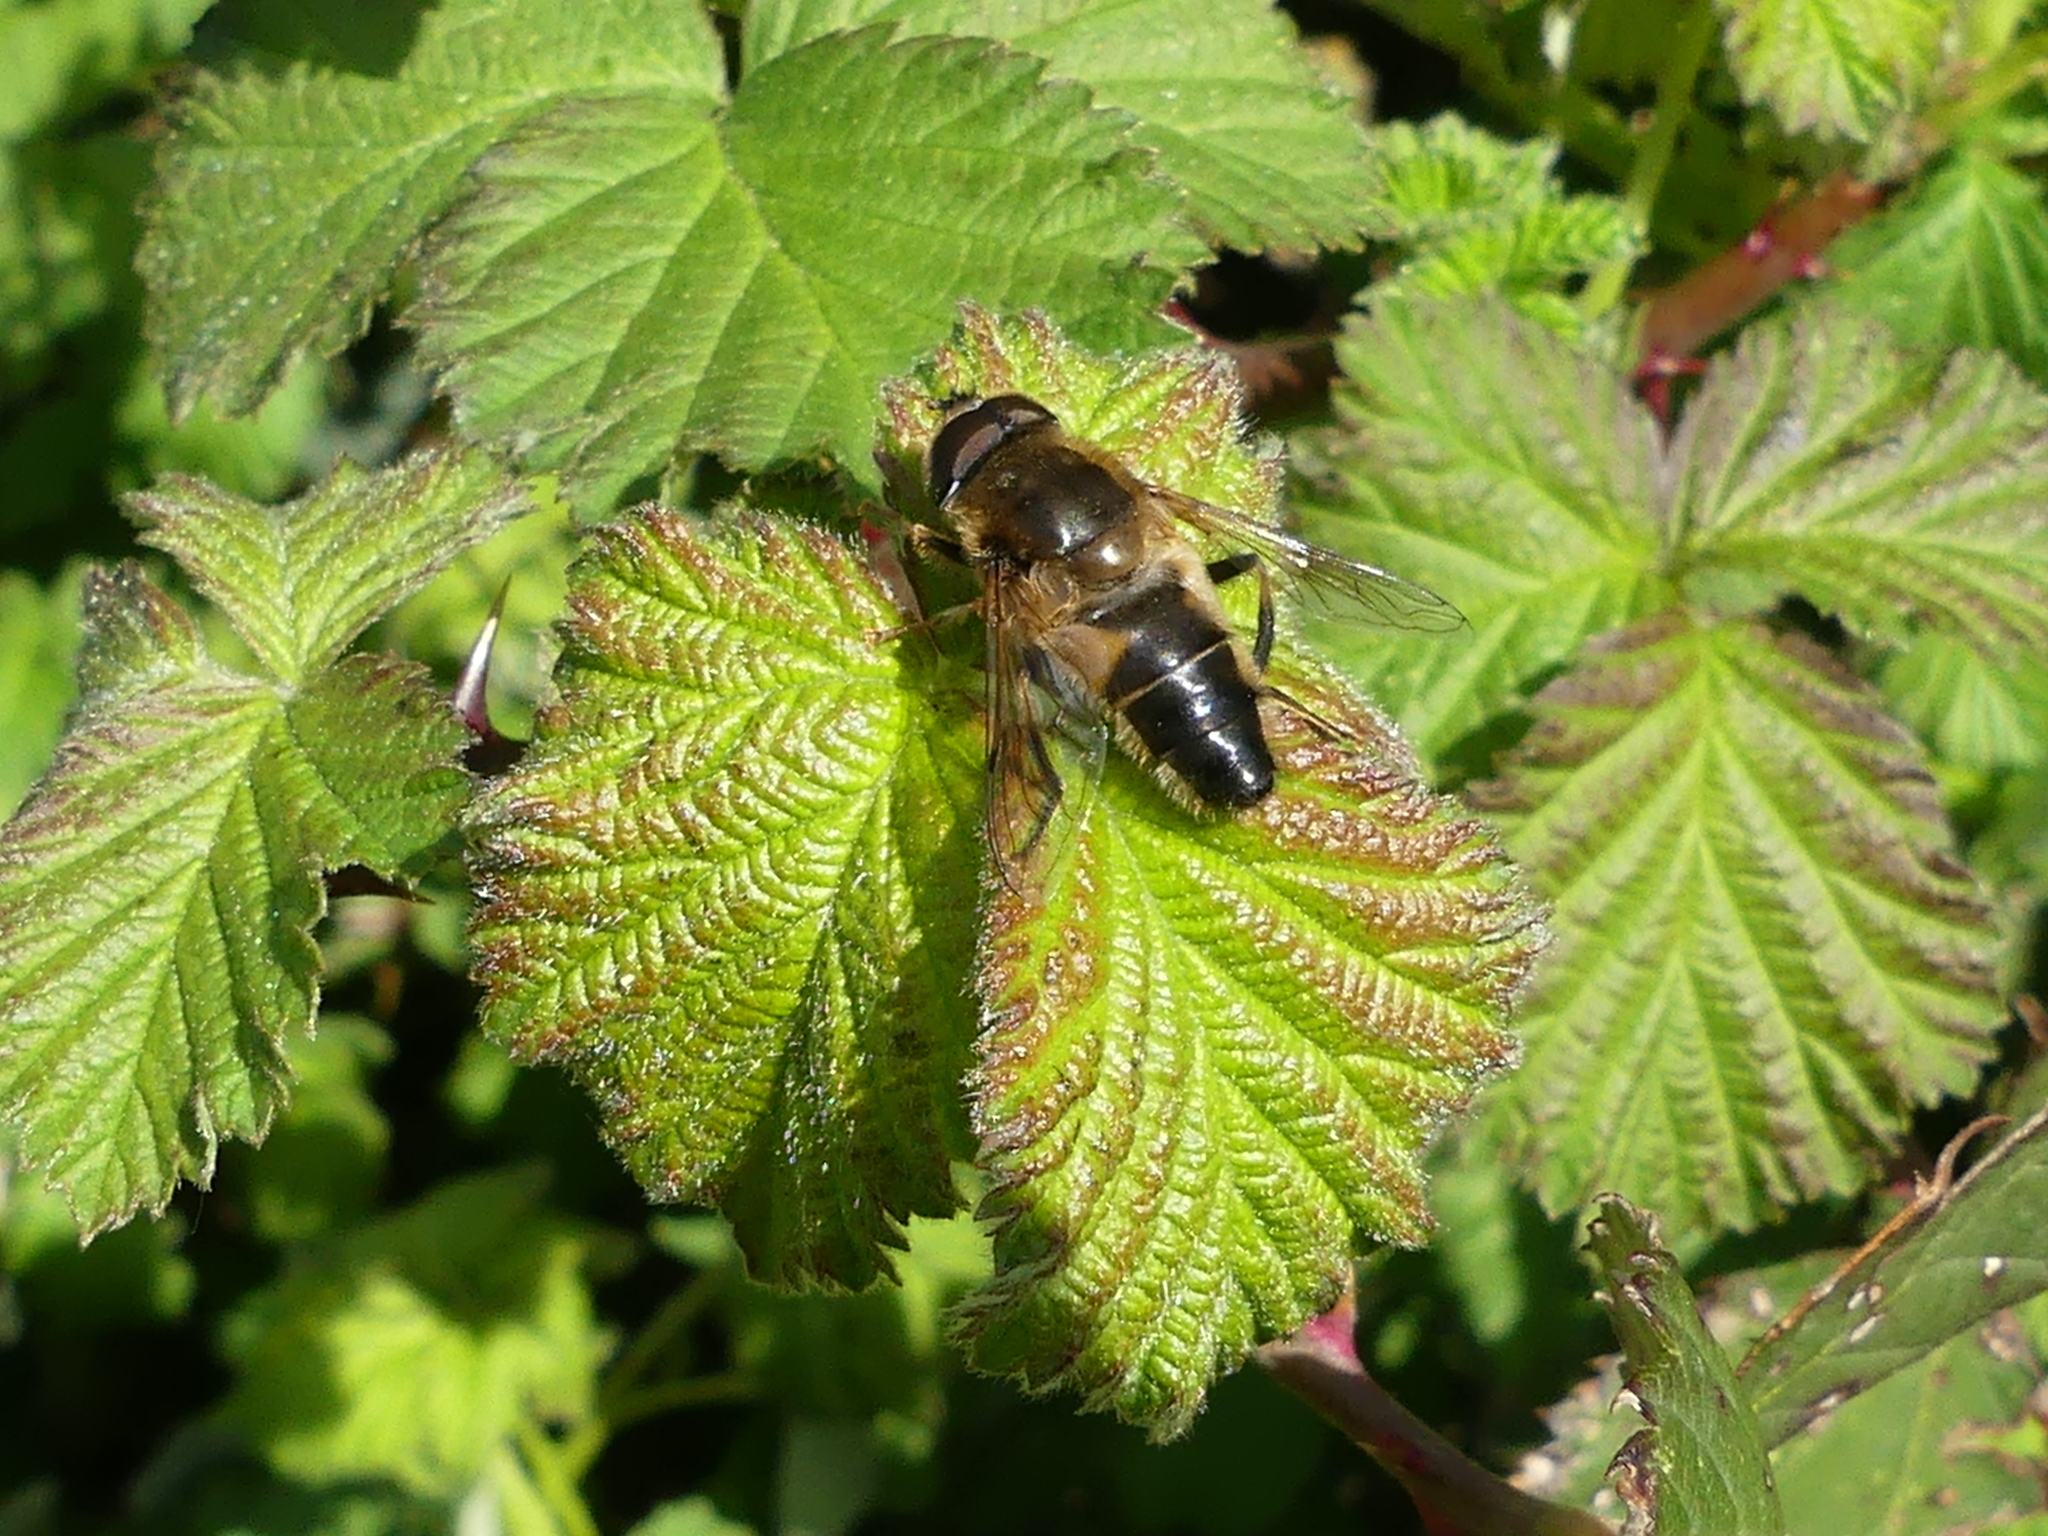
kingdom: Animalia
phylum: Arthropoda
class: Insecta
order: Diptera
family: Syrphidae
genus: Eristalis
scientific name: Eristalis pertinax
